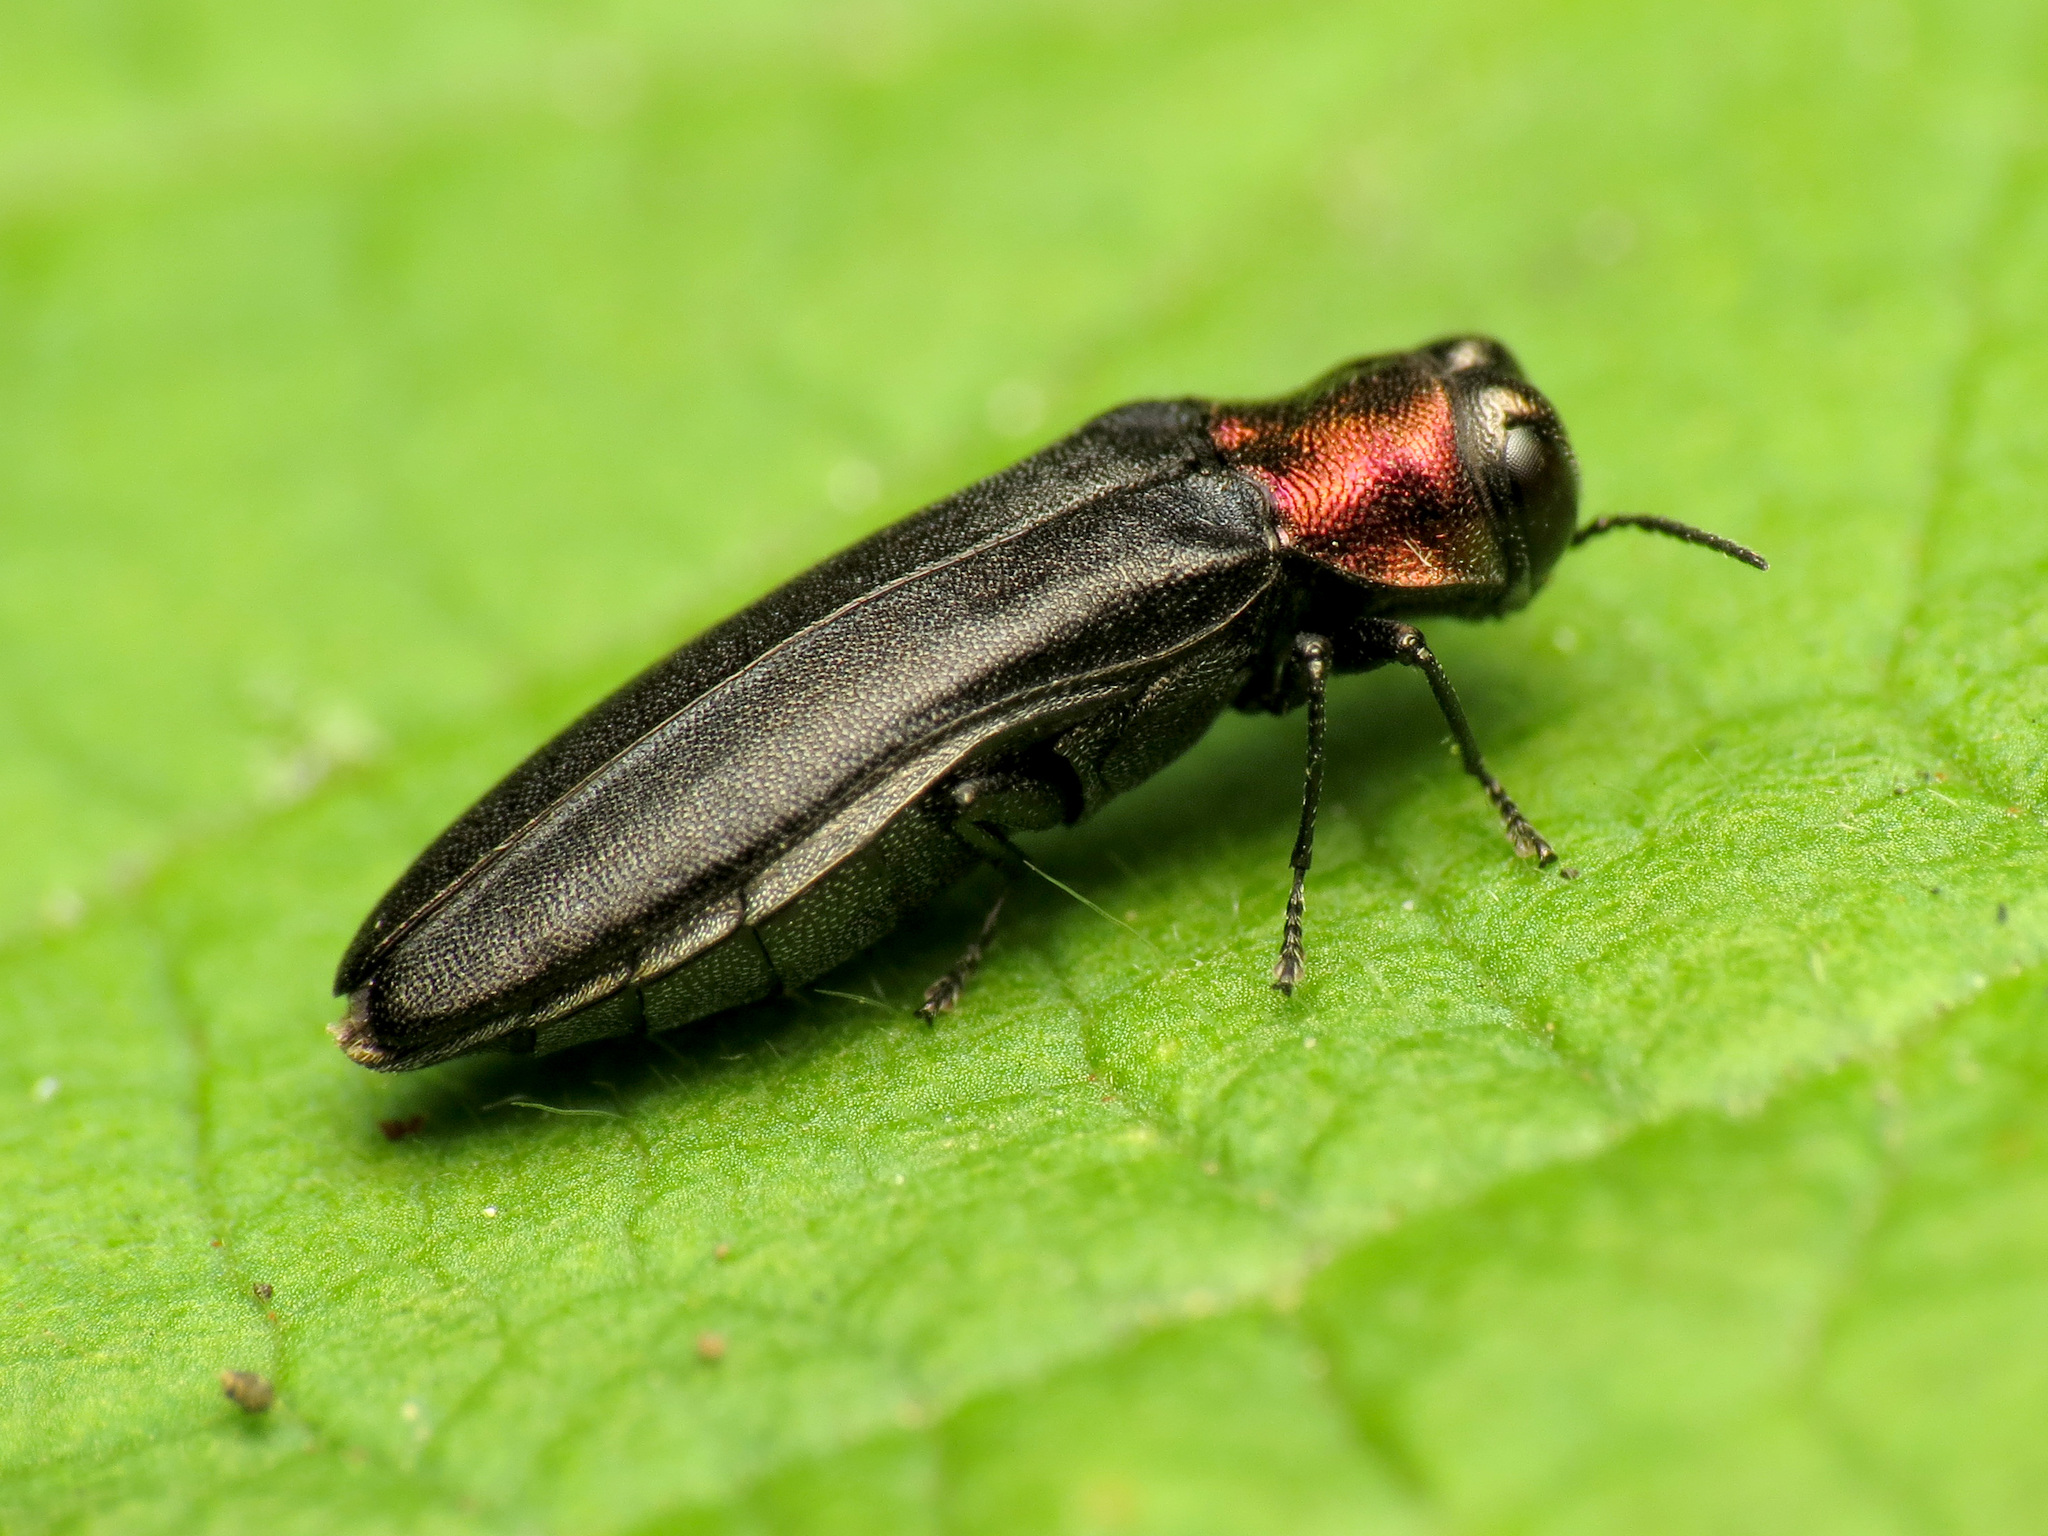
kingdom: Animalia
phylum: Arthropoda
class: Insecta
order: Coleoptera
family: Buprestidae
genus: Agrilus
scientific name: Agrilus ruficollis
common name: Red-necked cane borer beetle
